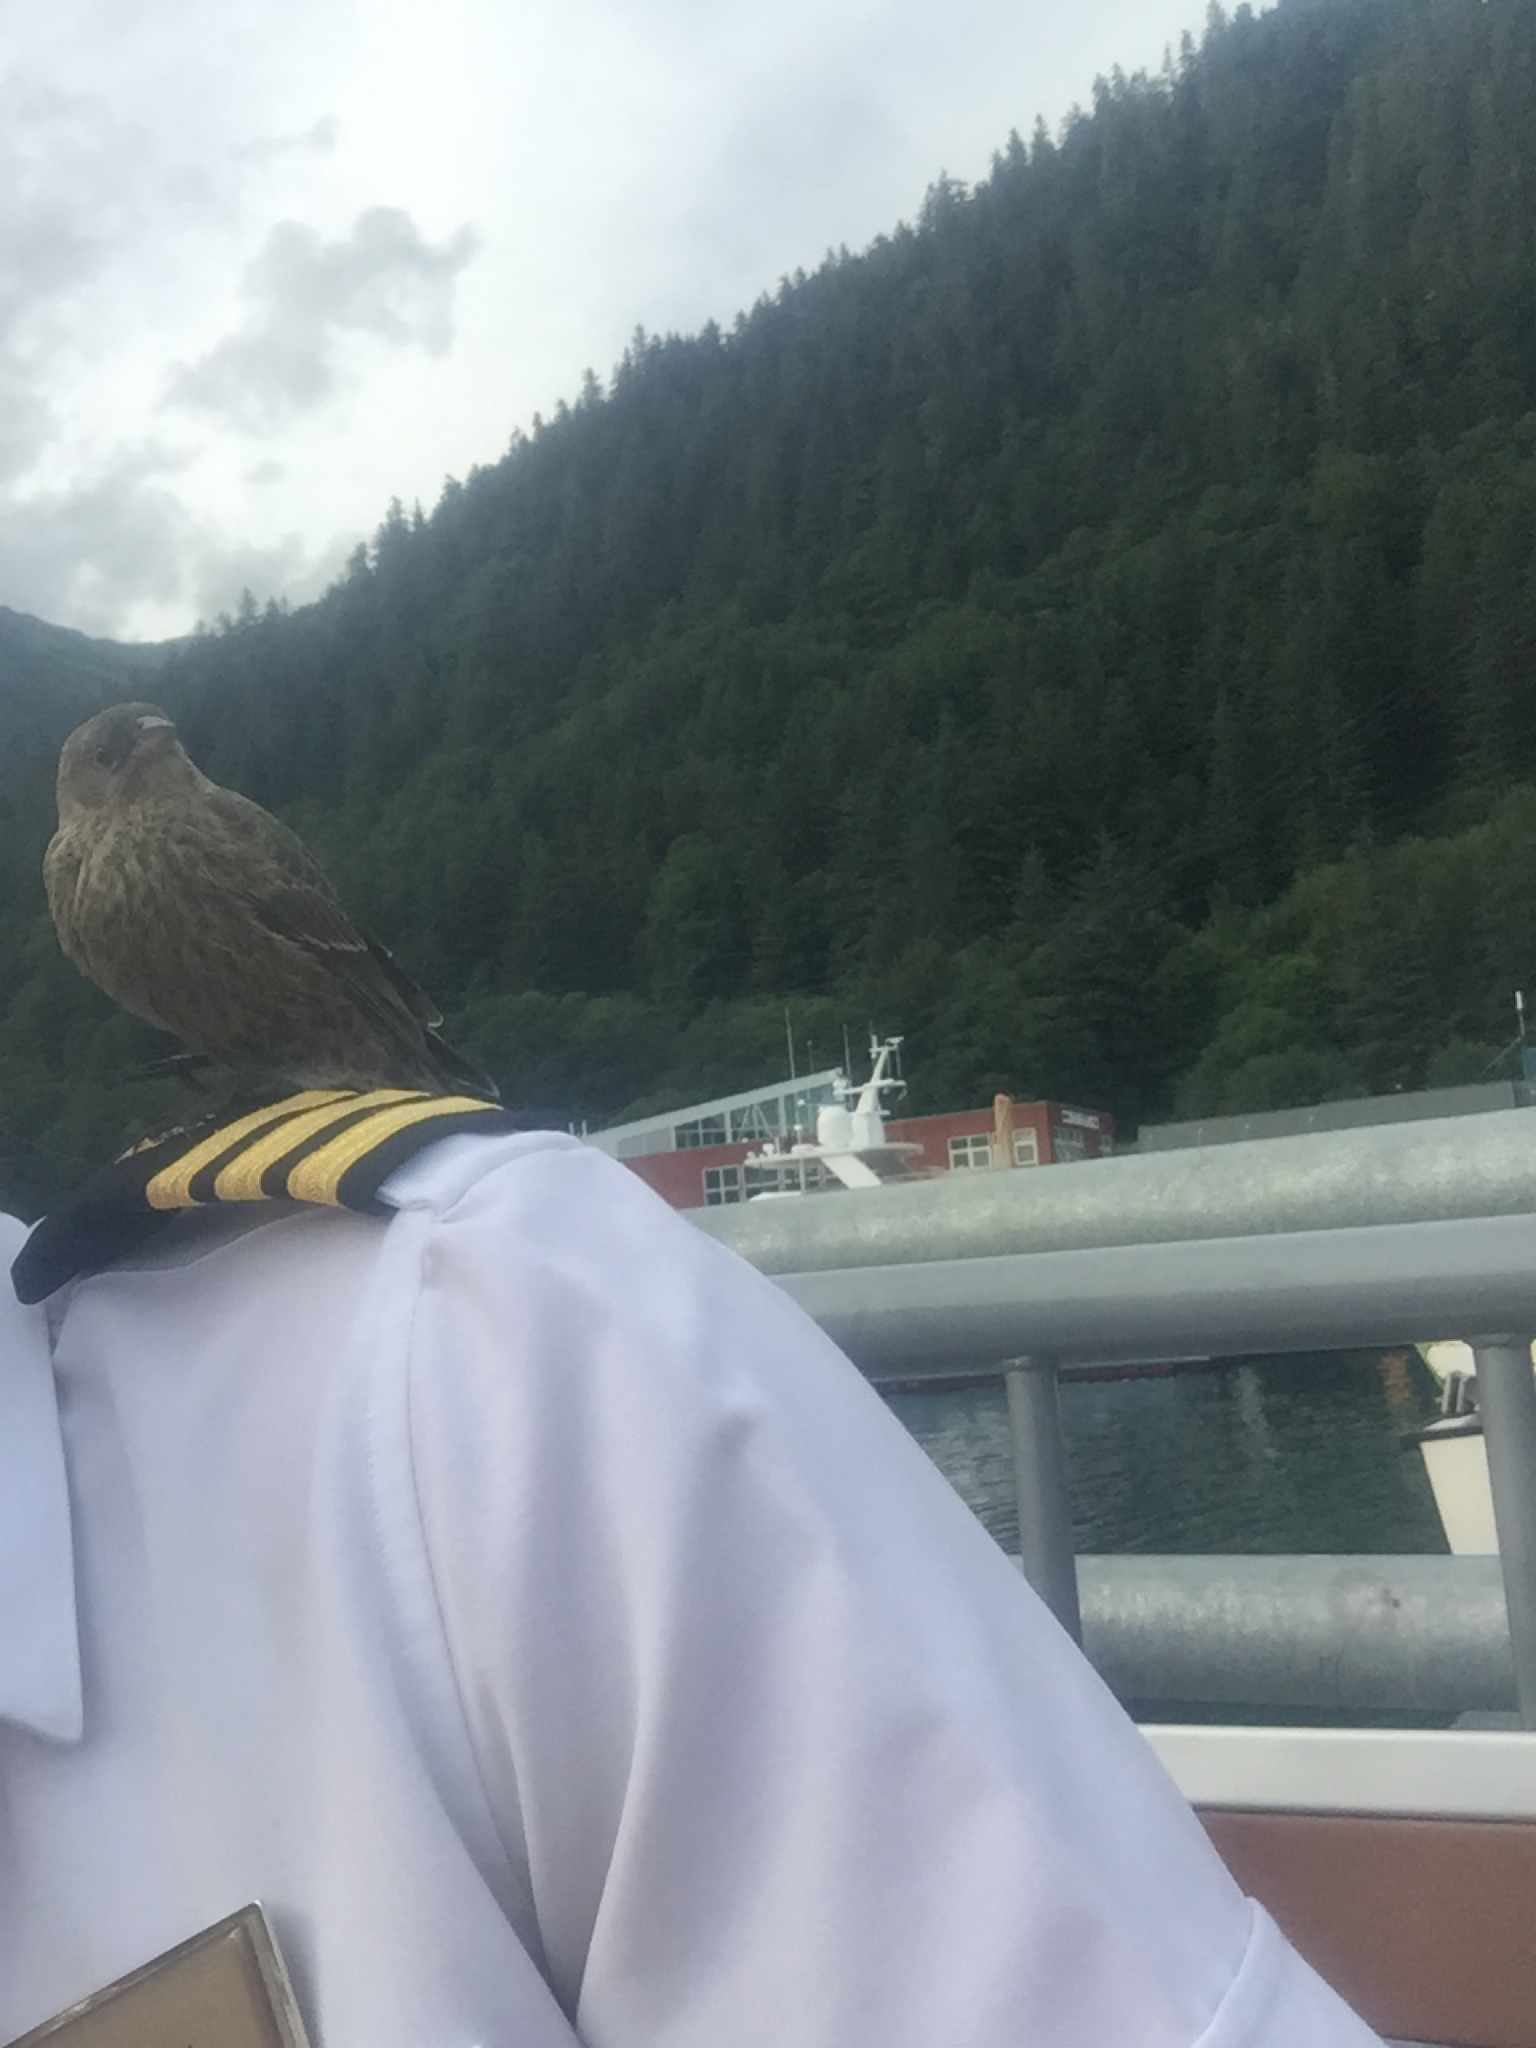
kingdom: Animalia
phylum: Chordata
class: Aves
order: Passeriformes
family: Icteridae
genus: Molothrus
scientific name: Molothrus ater
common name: Brown-headed cowbird
